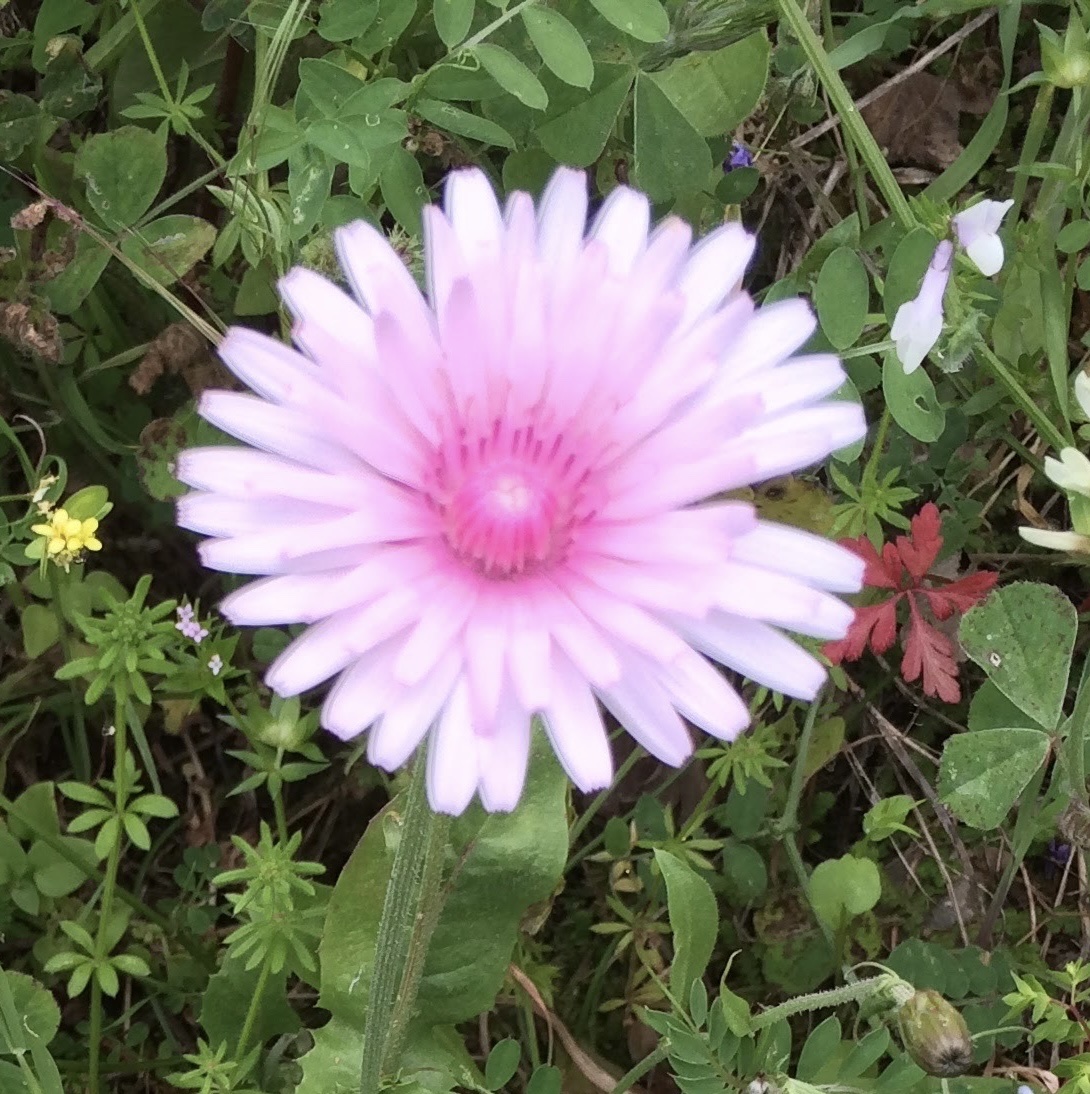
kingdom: Plantae
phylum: Tracheophyta
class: Magnoliopsida
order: Asterales
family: Asteraceae
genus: Crepis
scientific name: Crepis rubra
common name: Pink hawk's-beard
